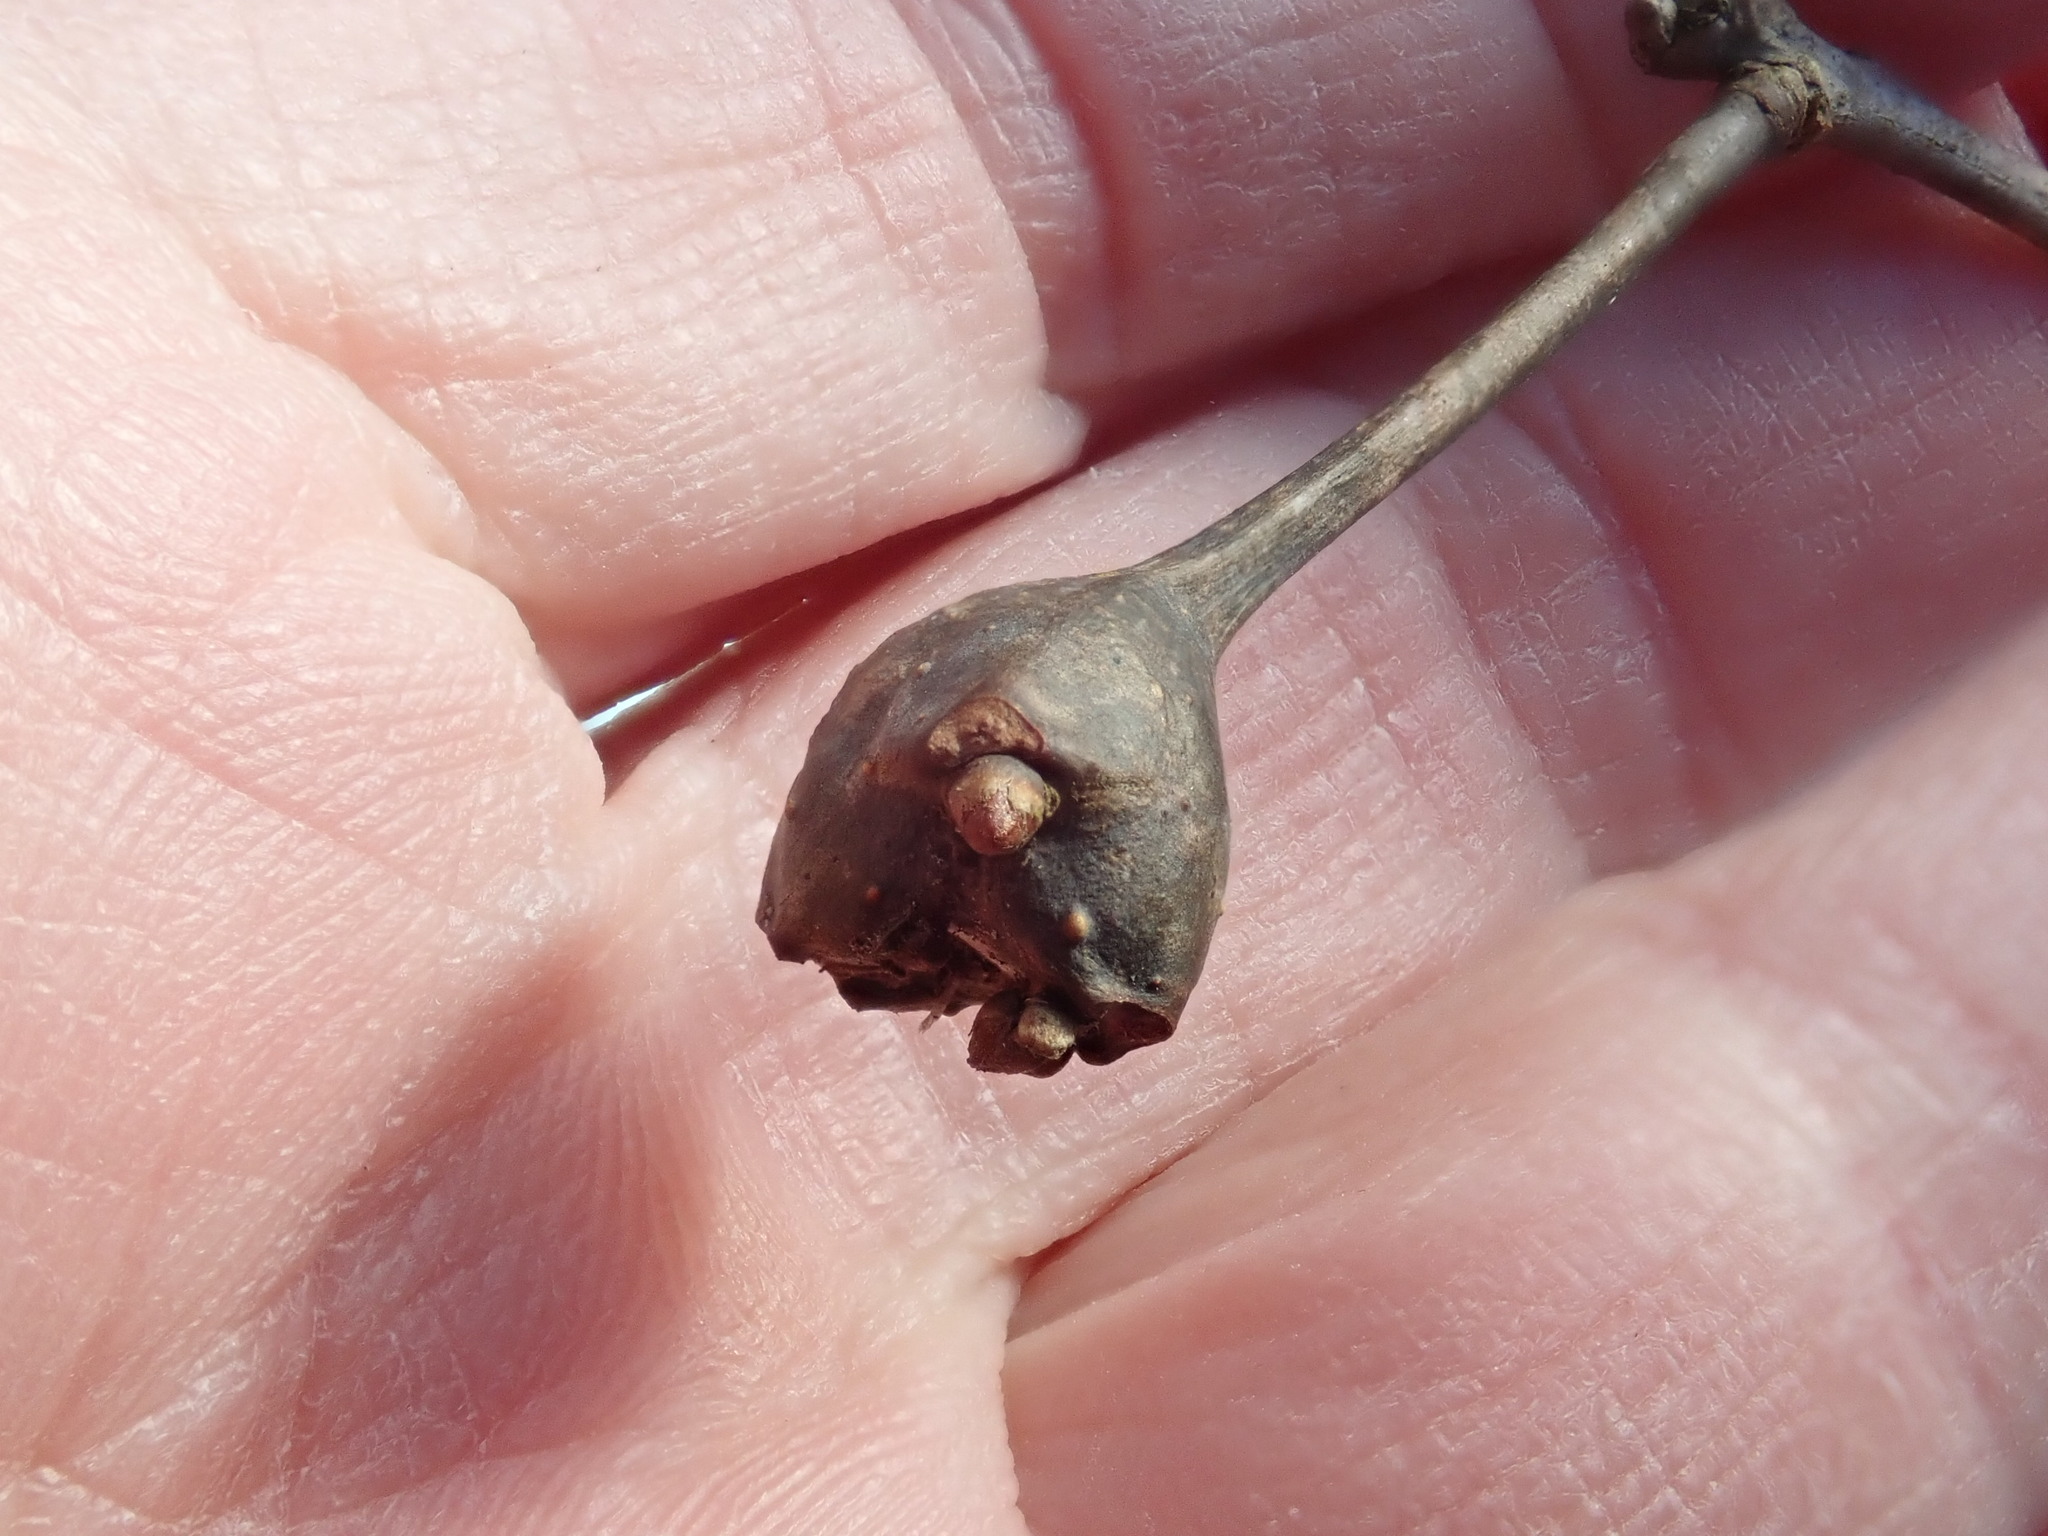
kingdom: Animalia
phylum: Arthropoda
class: Insecta
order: Hymenoptera
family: Cynipidae
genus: Callirhytis
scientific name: Callirhytis clavula
